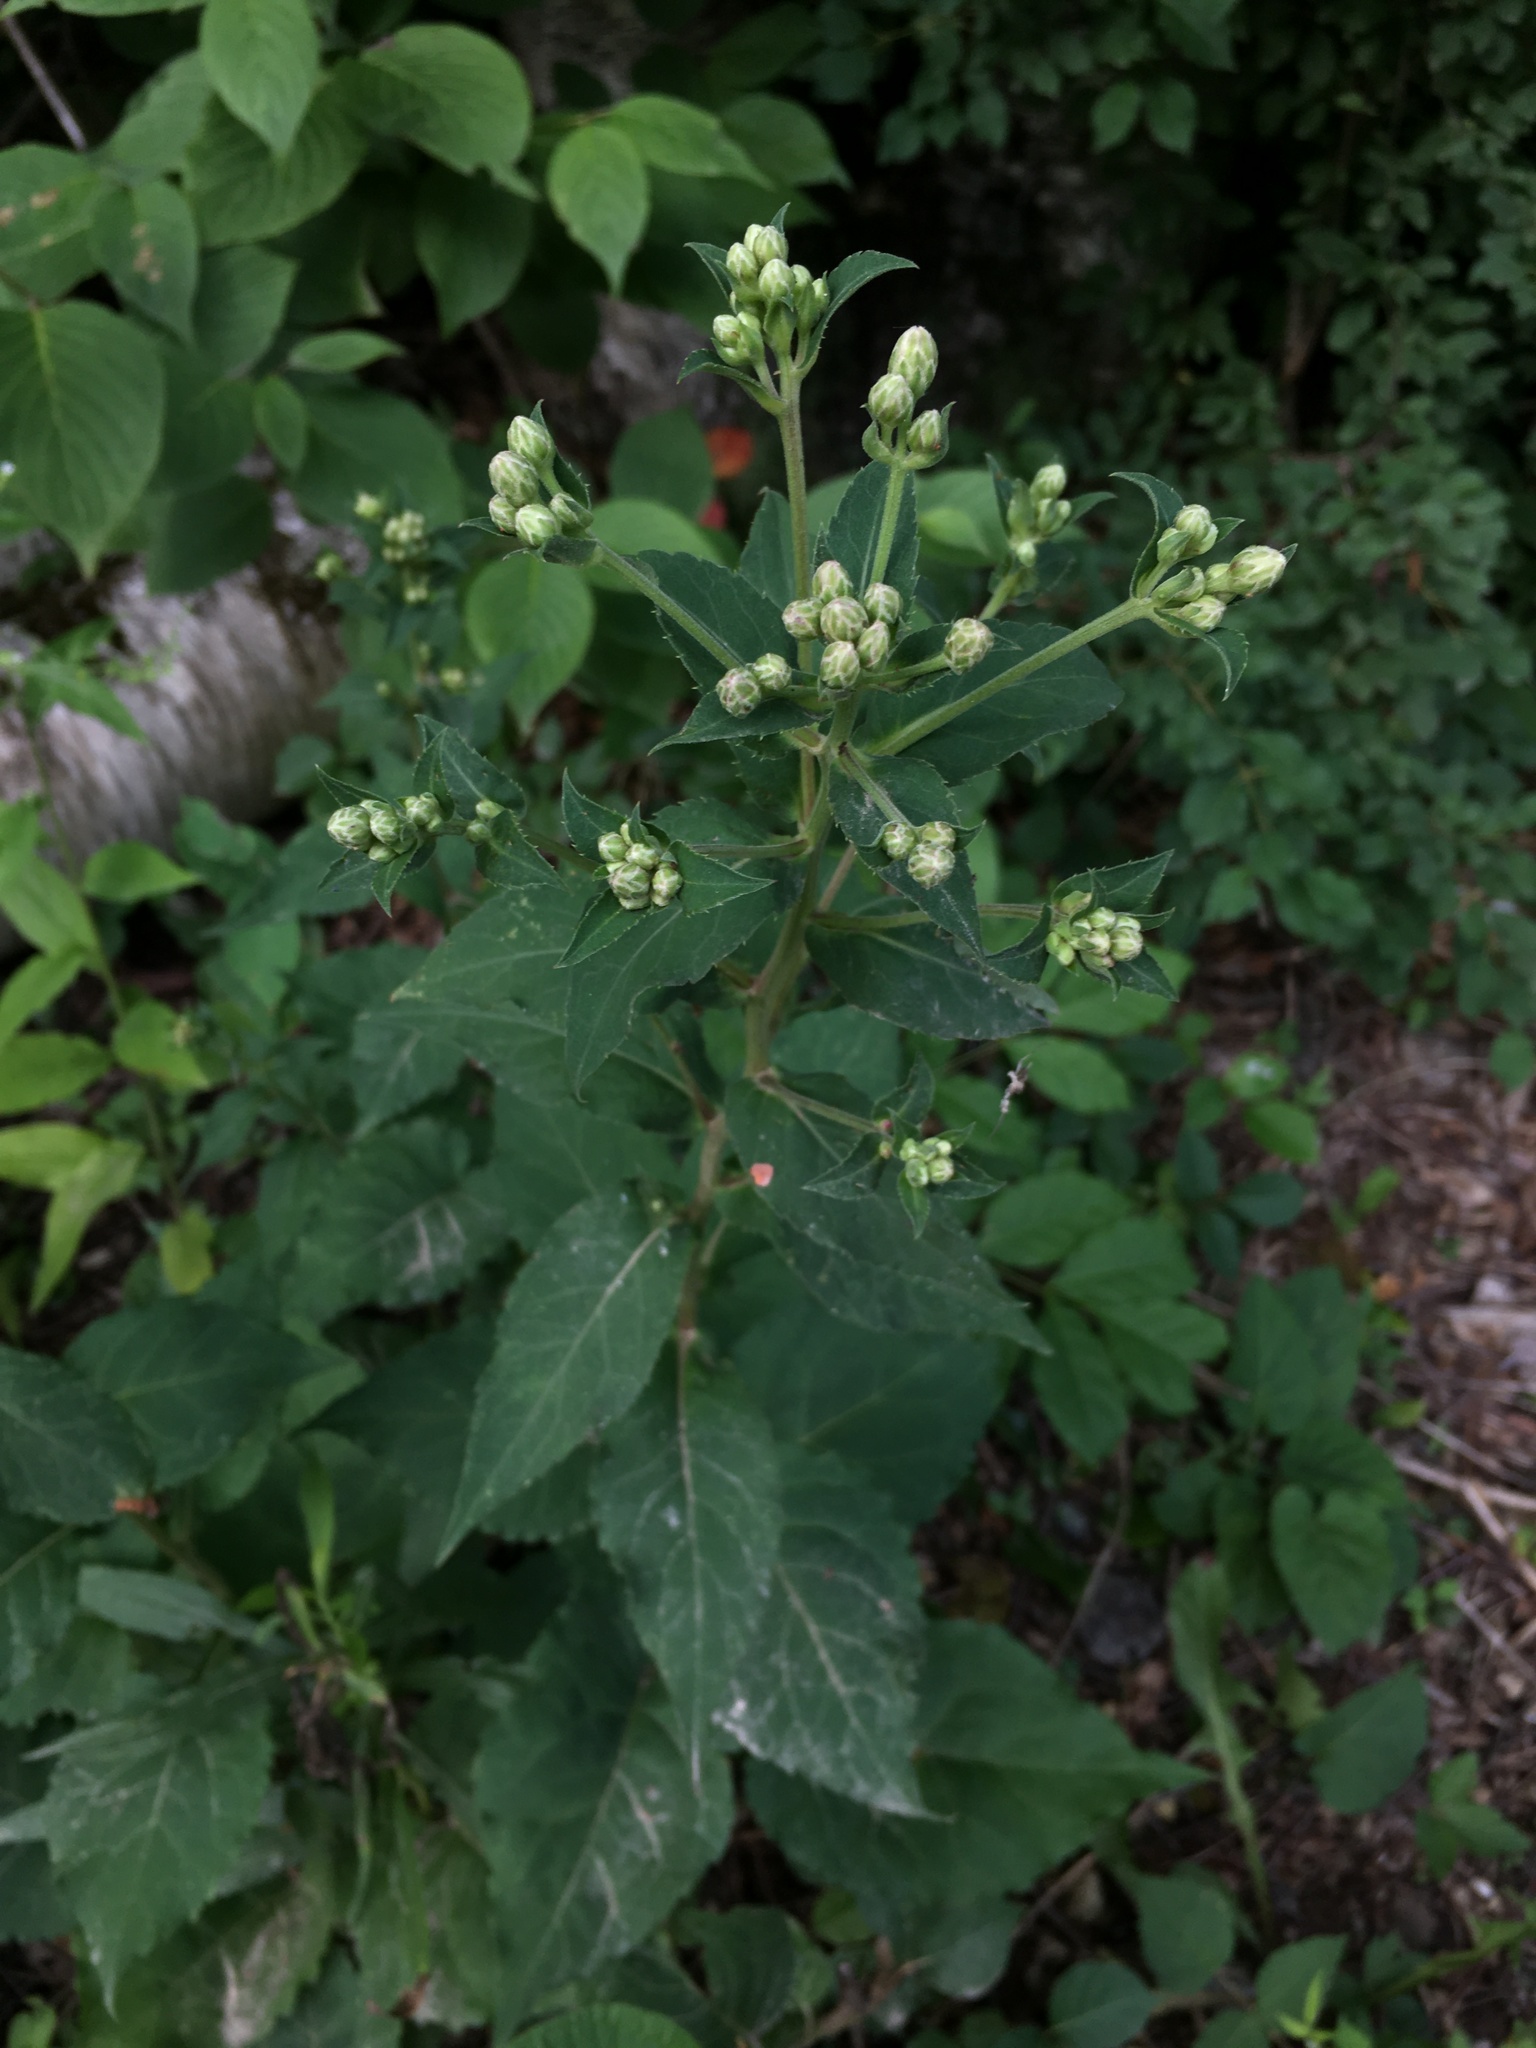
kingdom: Plantae
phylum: Tracheophyta
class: Magnoliopsida
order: Asterales
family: Asteraceae
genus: Eurybia
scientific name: Eurybia macrophylla
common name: Big-leaved aster
